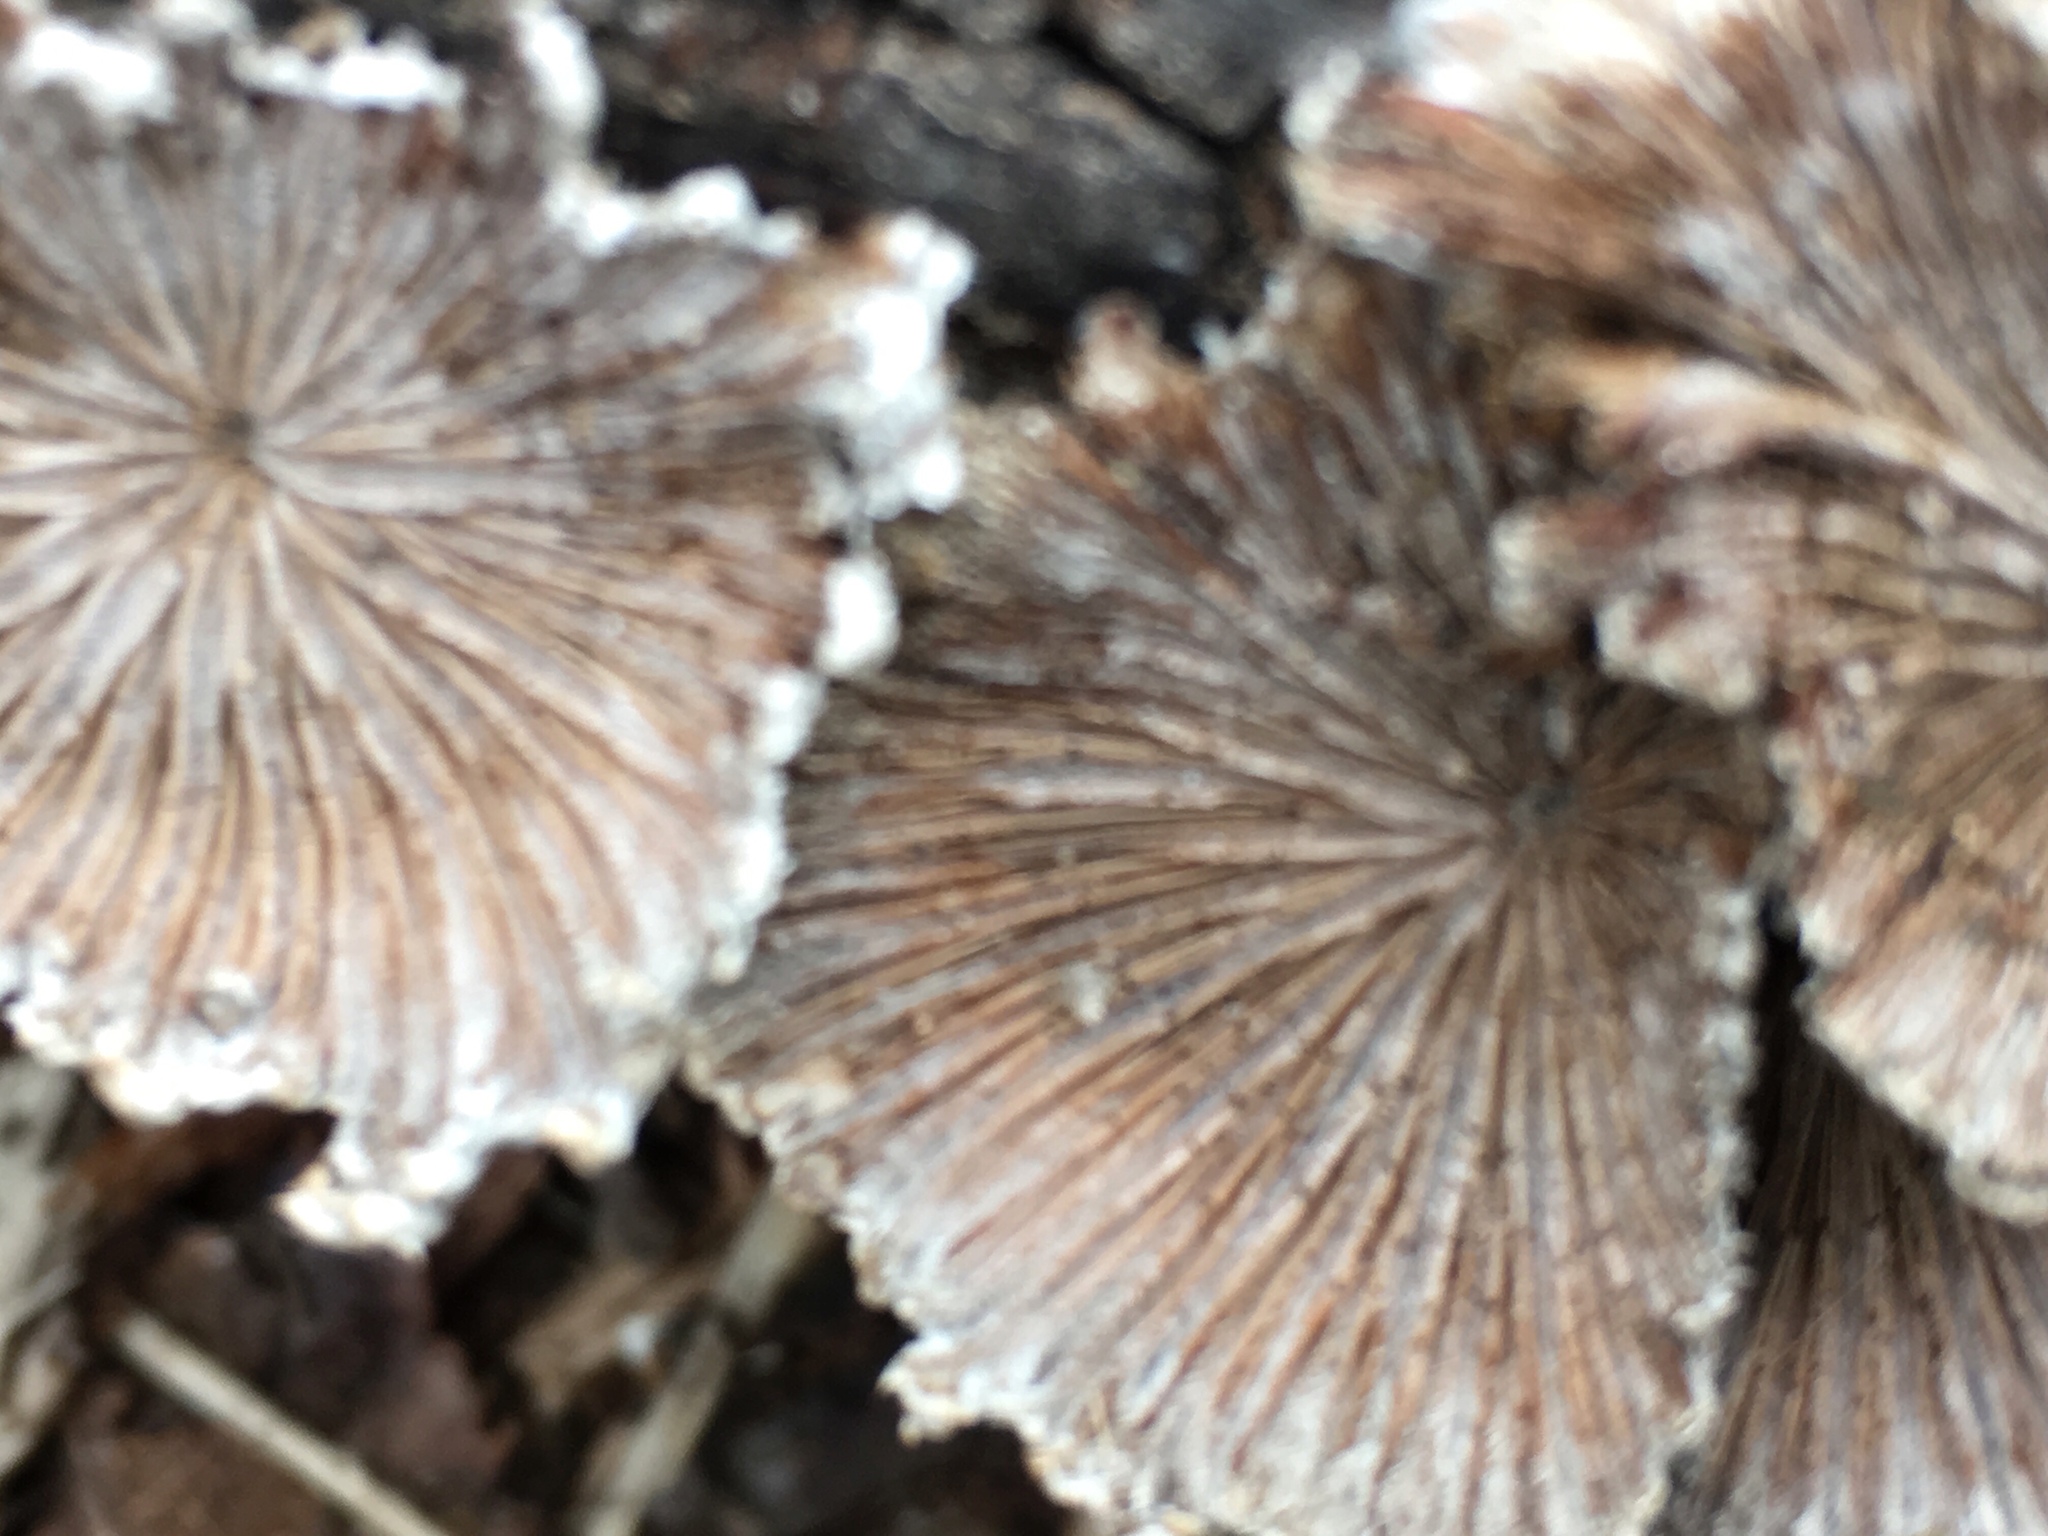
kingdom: Fungi
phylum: Basidiomycota
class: Agaricomycetes
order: Agaricales
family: Schizophyllaceae
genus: Schizophyllum
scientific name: Schizophyllum commune
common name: Common porecrust
